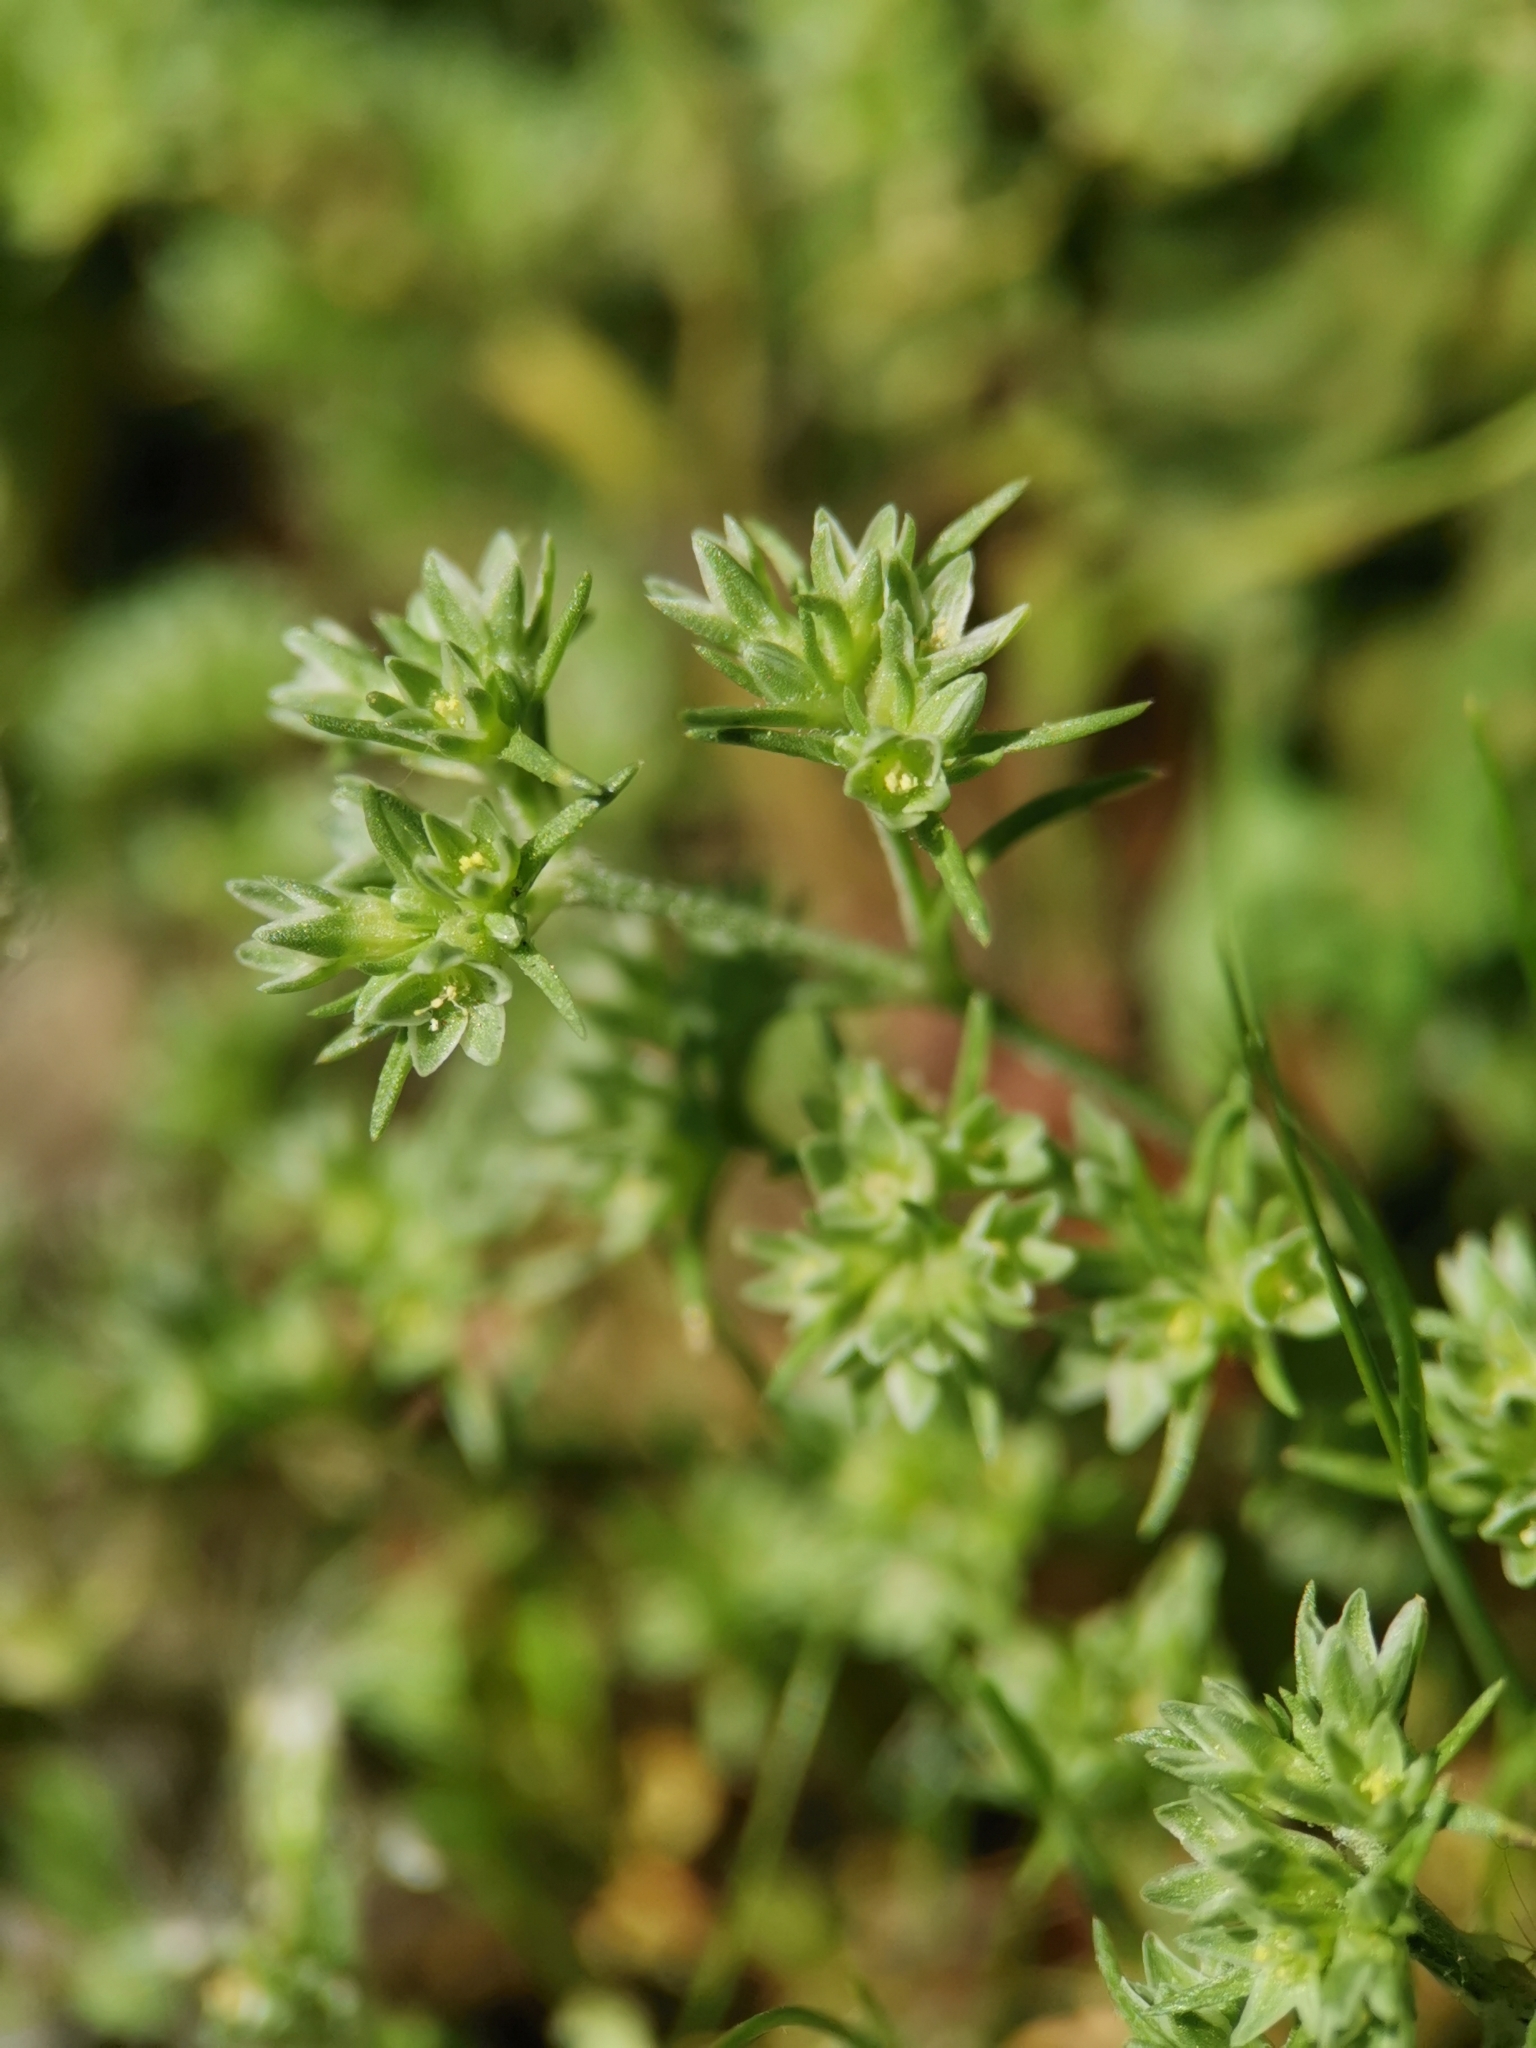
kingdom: Plantae
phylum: Tracheophyta
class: Magnoliopsida
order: Caryophyllales
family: Caryophyllaceae
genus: Scleranthus
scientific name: Scleranthus annuus
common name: Annual knawel
